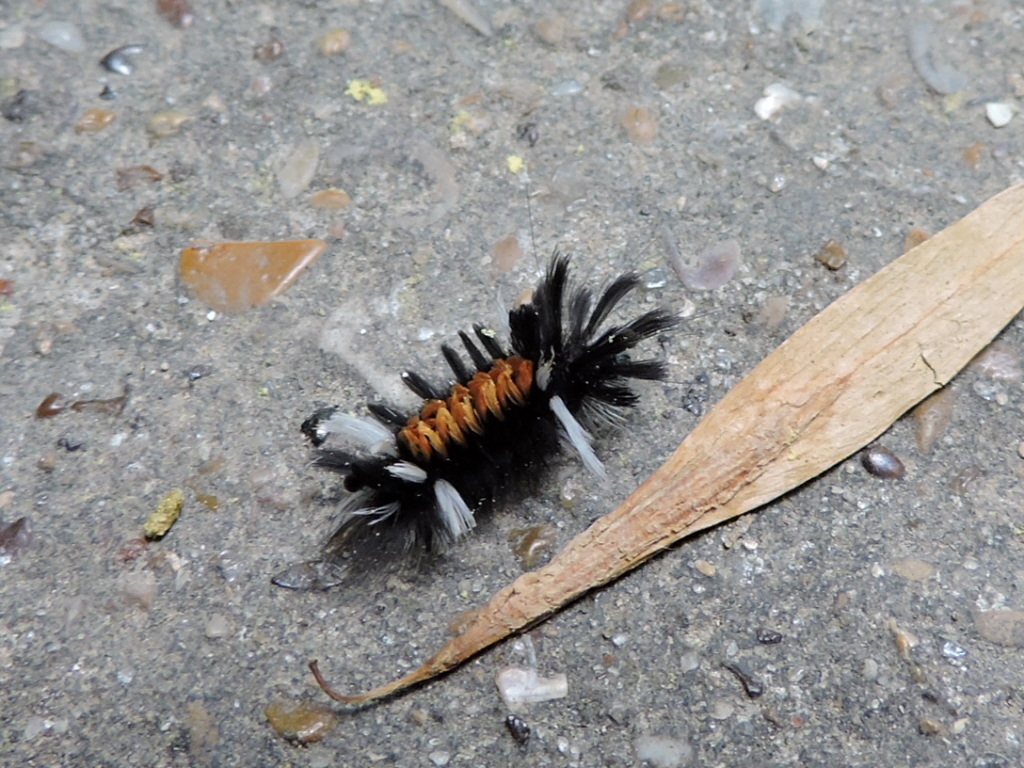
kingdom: Animalia
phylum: Arthropoda
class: Insecta
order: Lepidoptera
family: Erebidae
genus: Euchaetes
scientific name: Euchaetes egle
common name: Milkweed tussock moth
